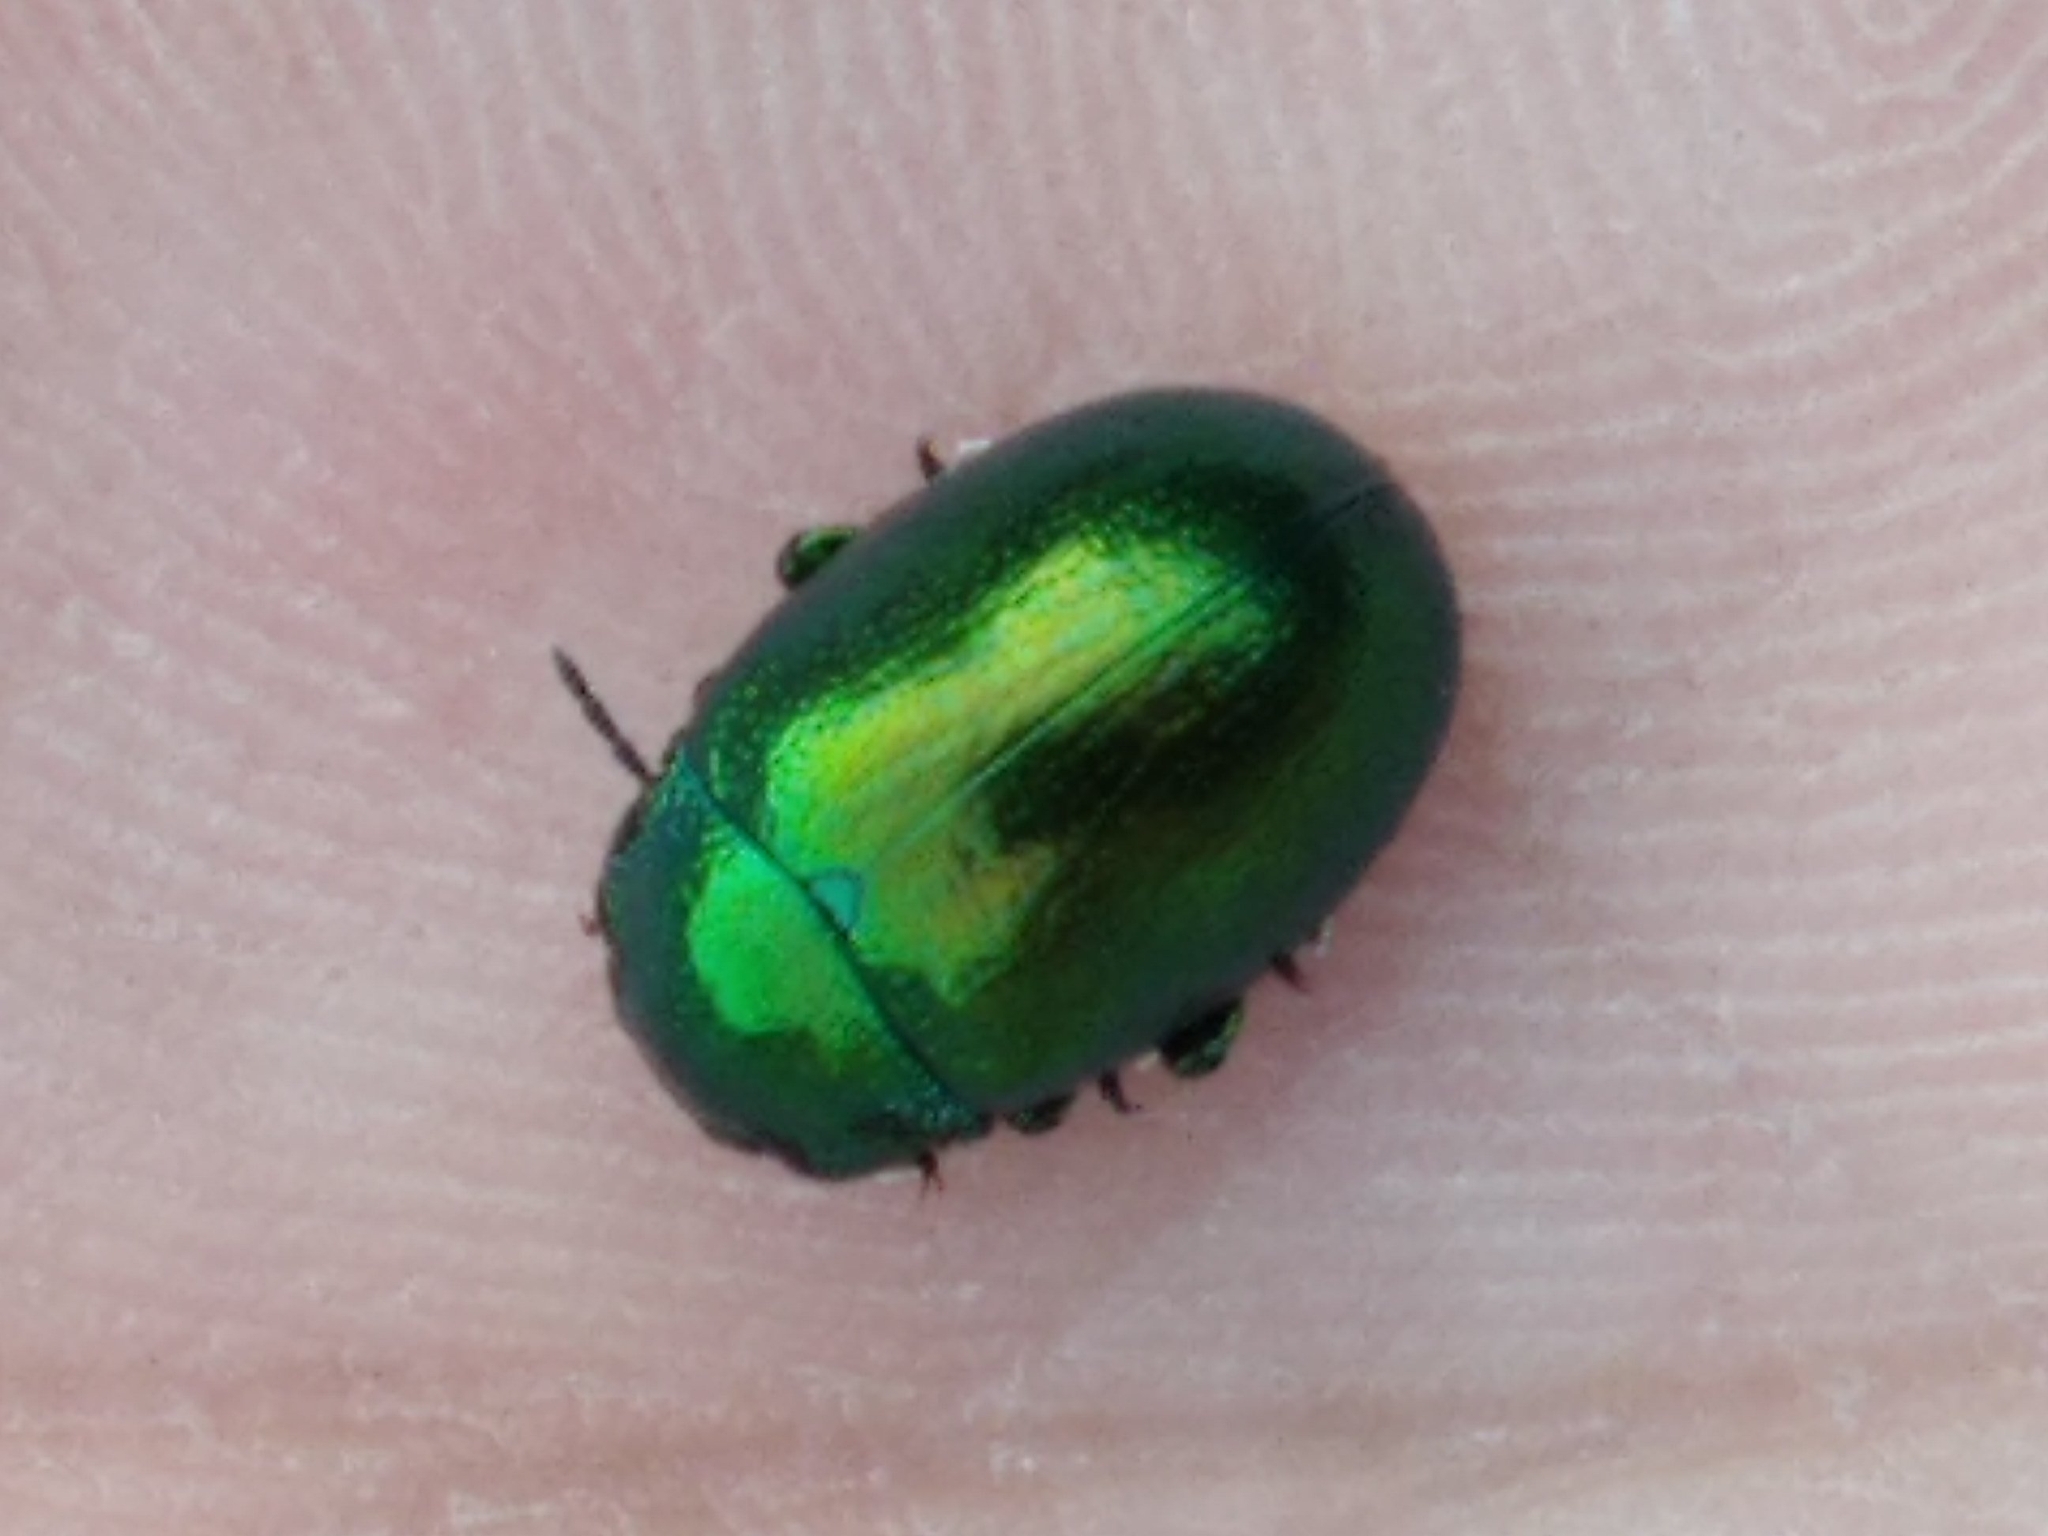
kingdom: Animalia
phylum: Arthropoda
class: Insecta
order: Coleoptera
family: Chrysomelidae
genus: Chrysolina
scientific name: Chrysolina herbacea
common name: Mint leaf beatle
